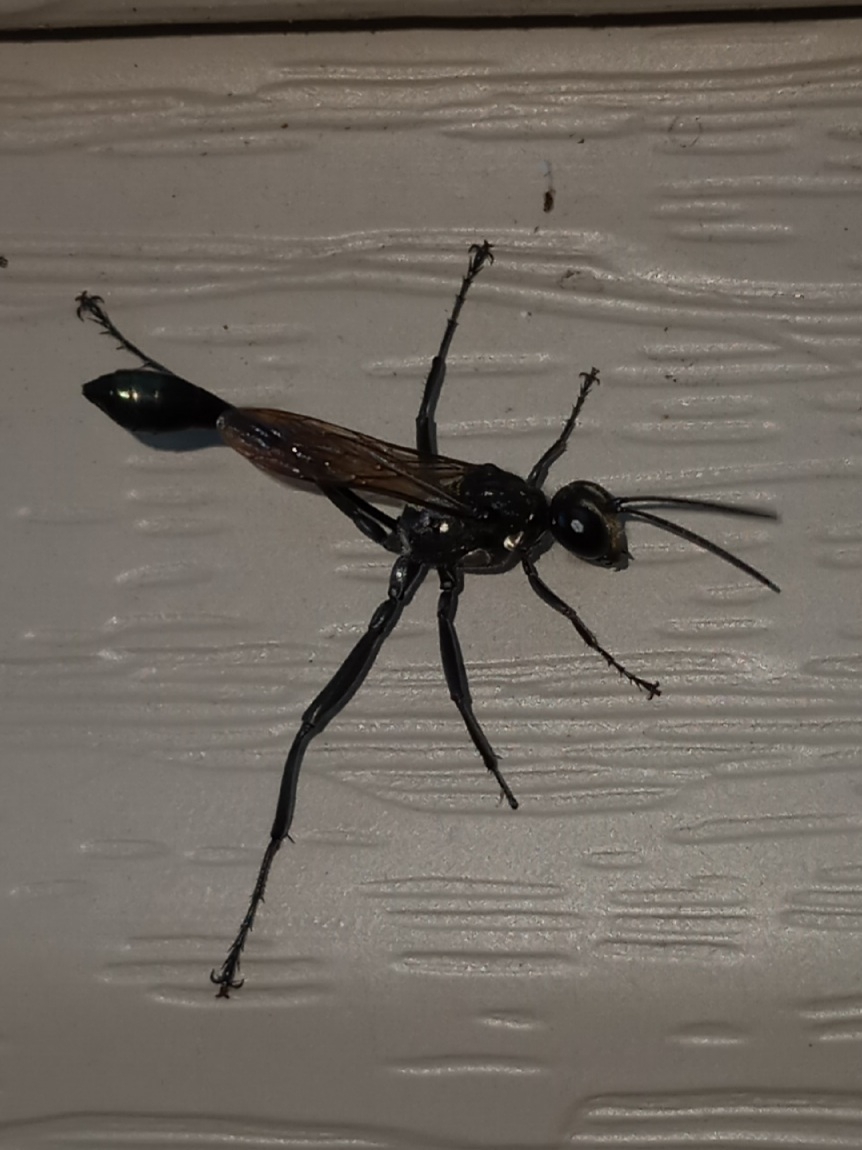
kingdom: Animalia
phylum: Arthropoda
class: Insecta
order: Hymenoptera
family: Sphecidae
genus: Eremnophila
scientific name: Eremnophila aureonotata
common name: Gold-marked thread-waisted wasp
